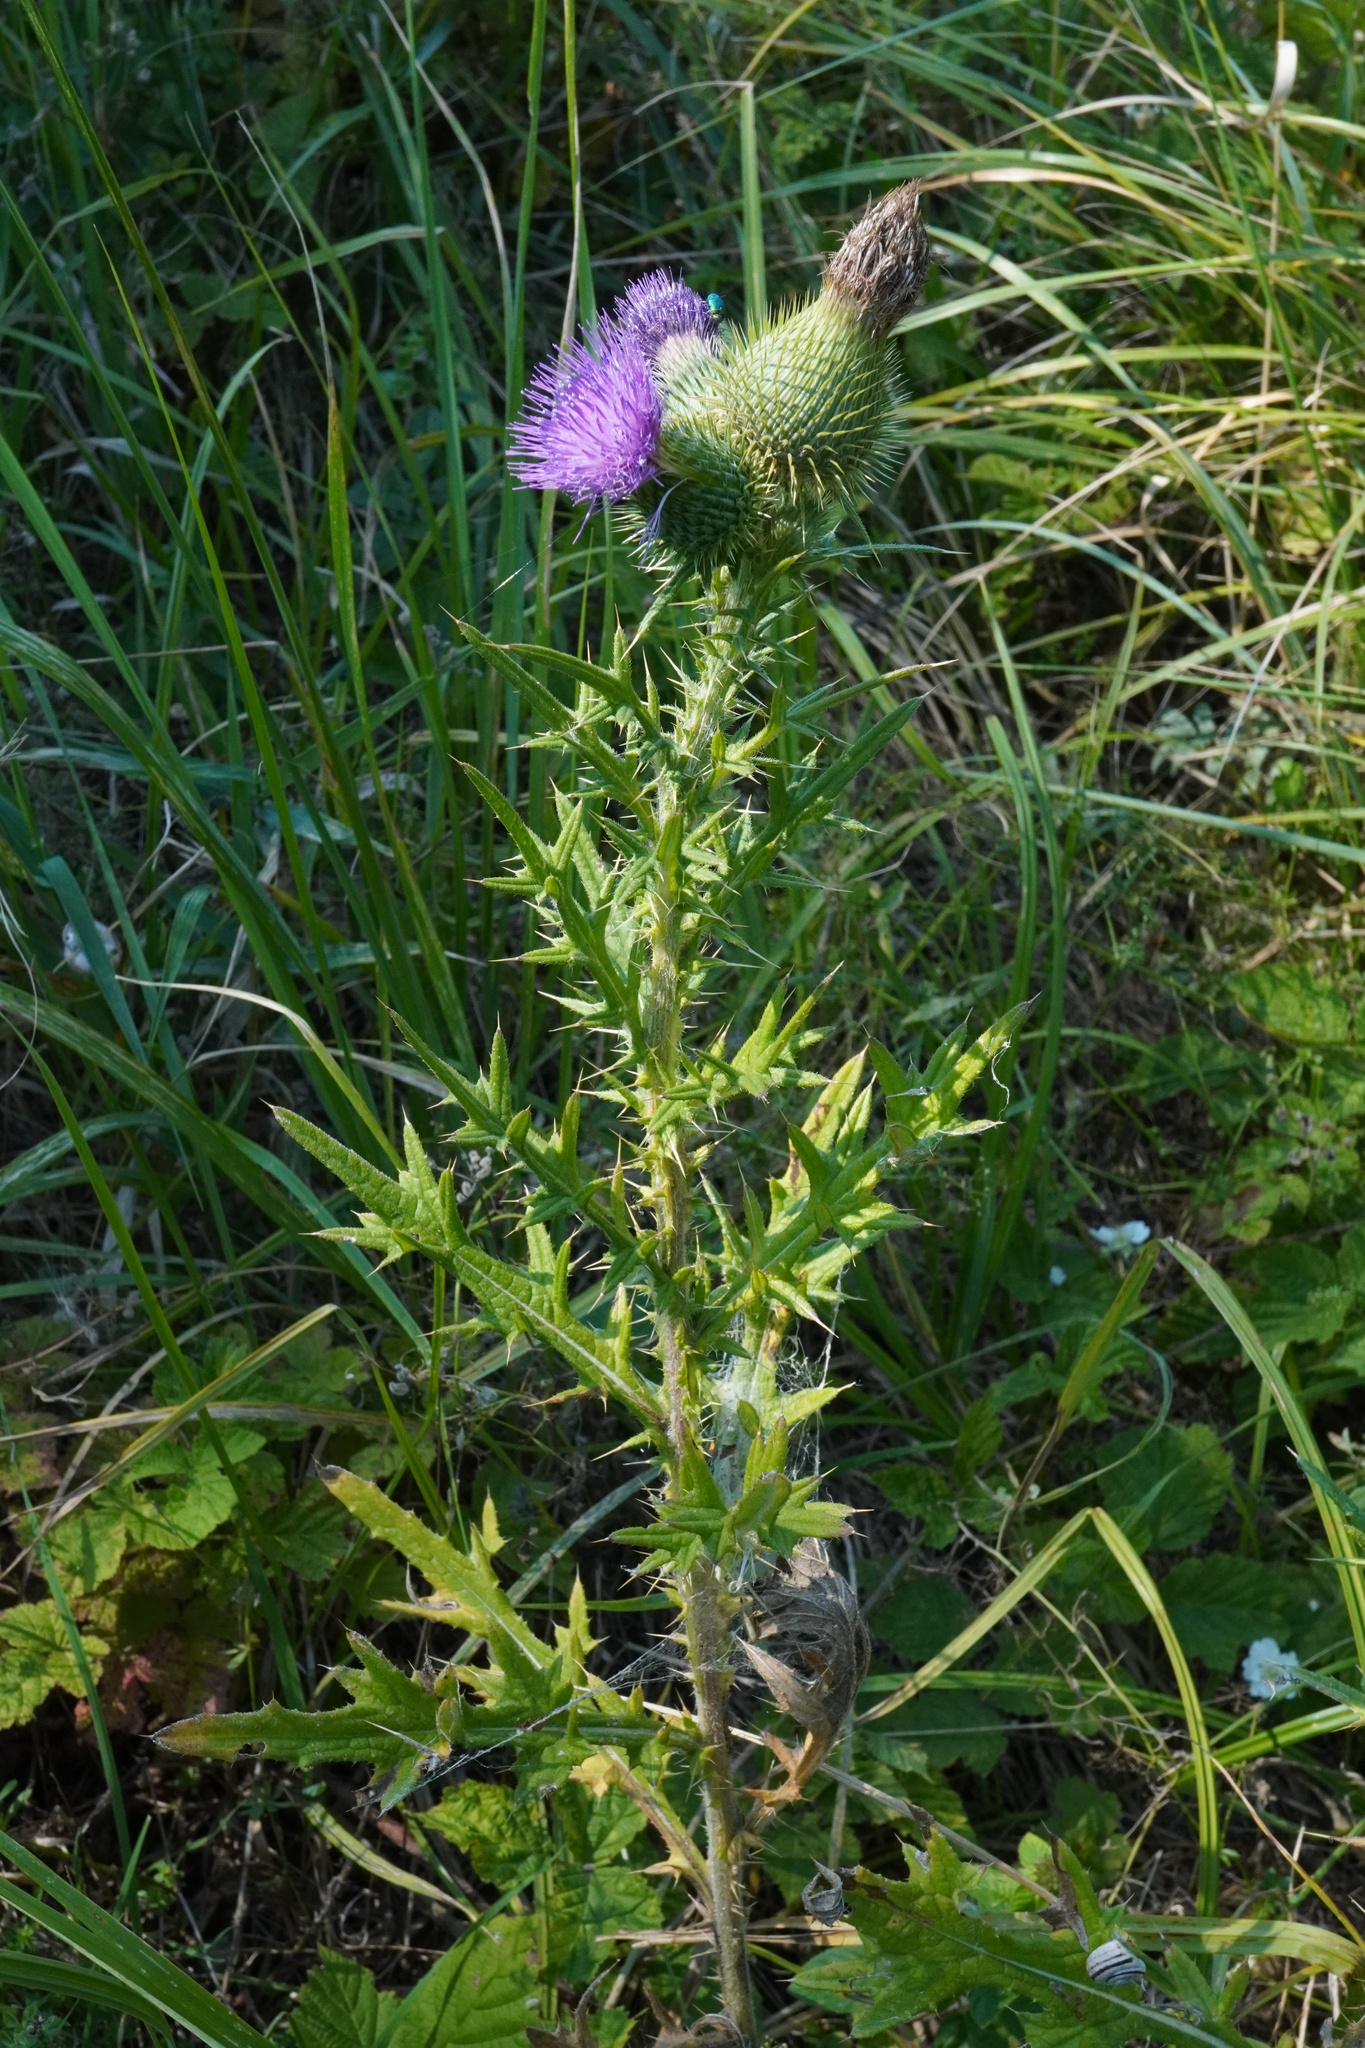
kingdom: Plantae
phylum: Tracheophyta
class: Magnoliopsida
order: Asterales
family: Asteraceae
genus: Cirsium
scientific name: Cirsium vulgare
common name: Bull thistle
